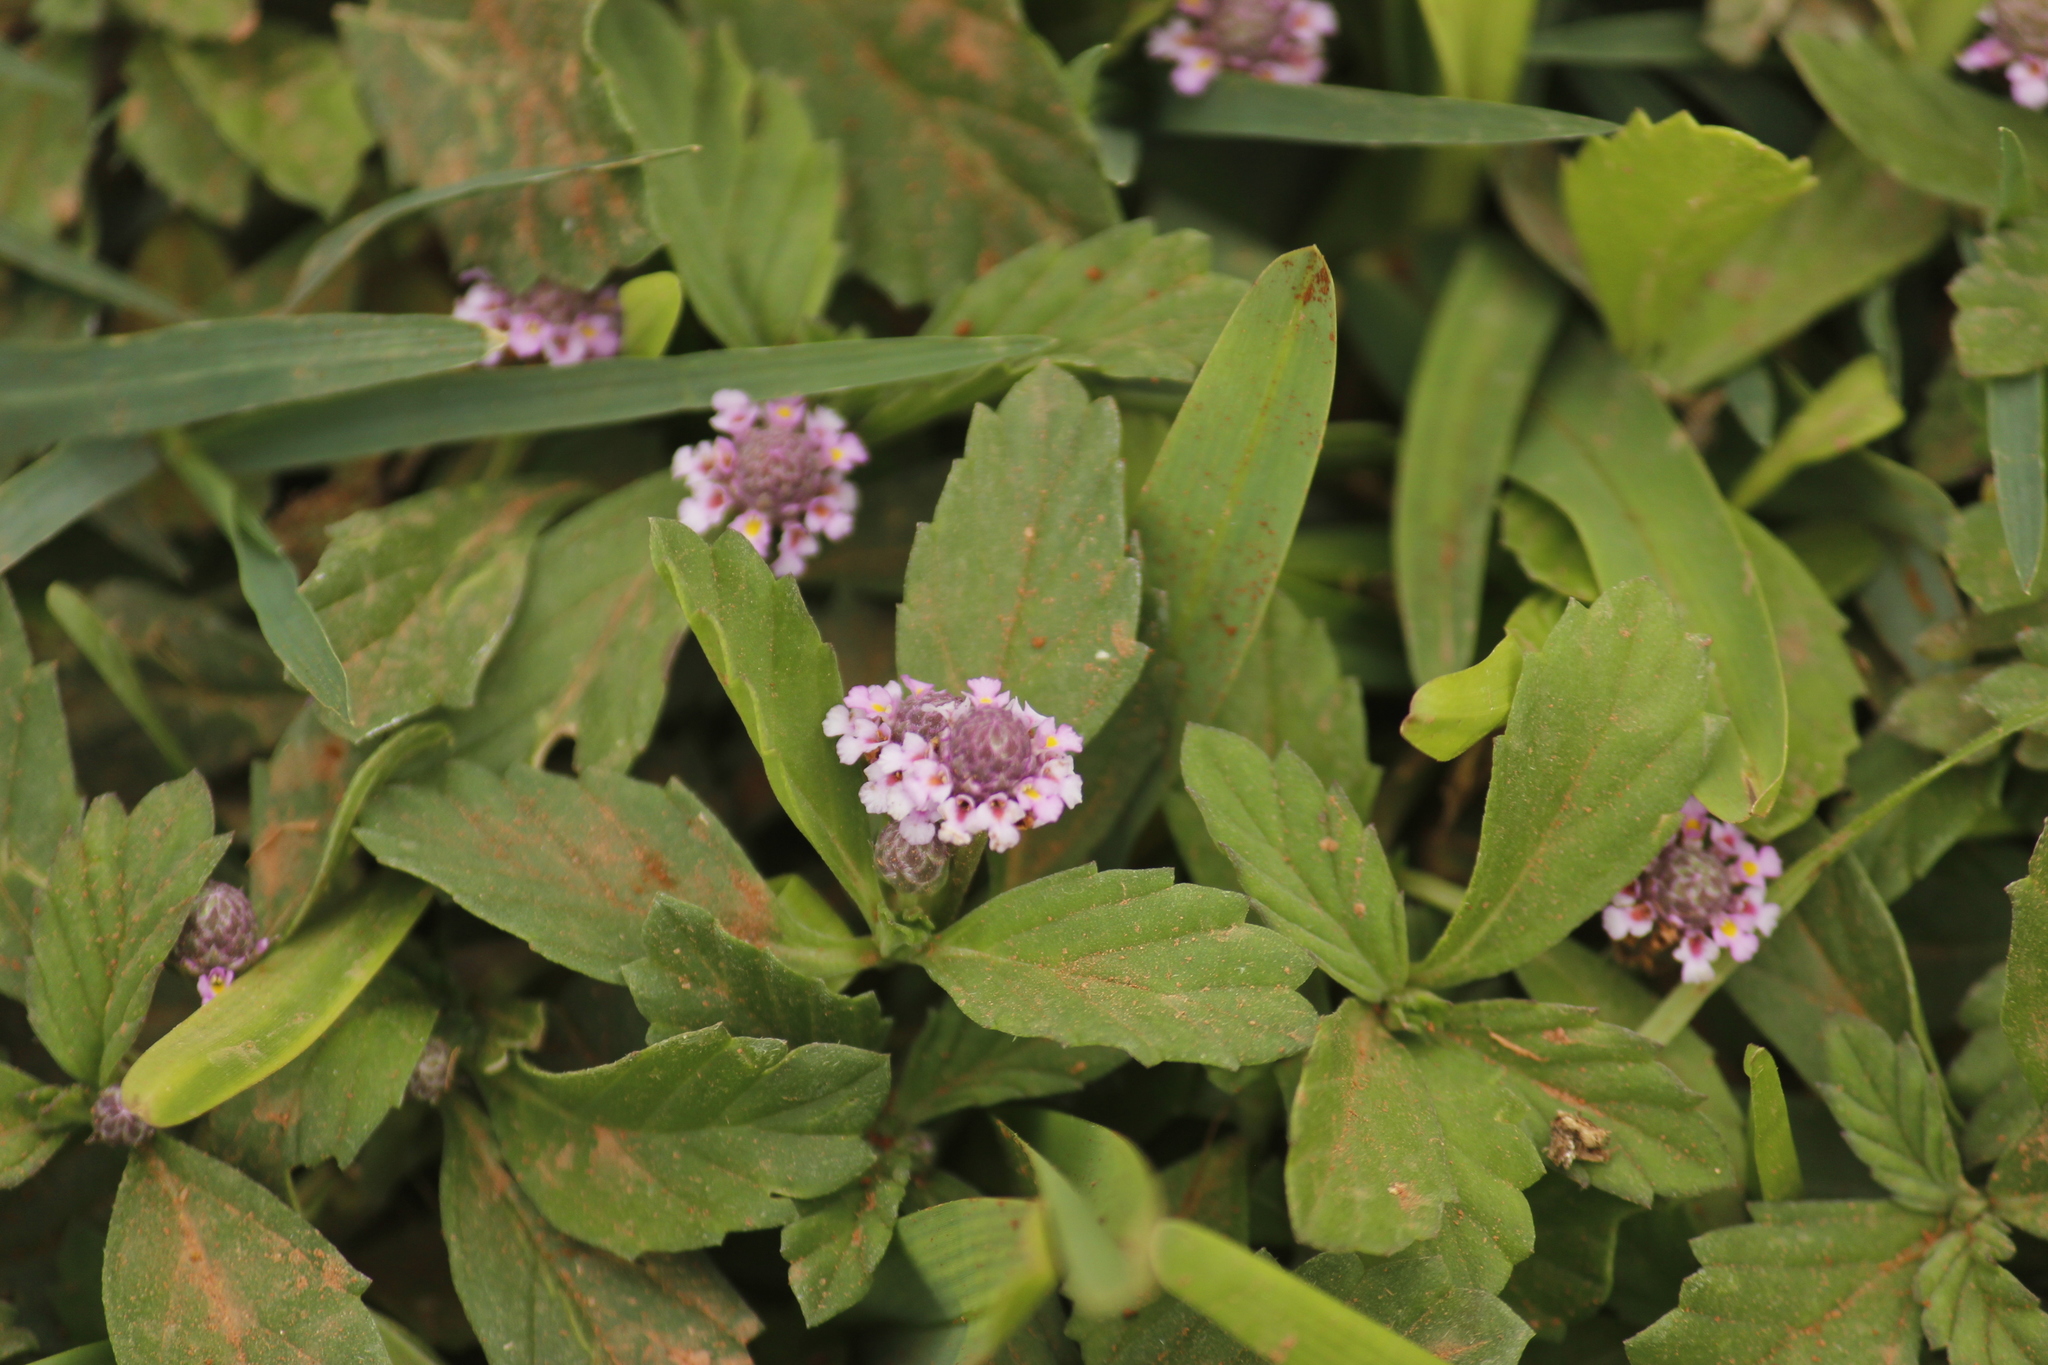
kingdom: Plantae
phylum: Tracheophyta
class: Magnoliopsida
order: Lamiales
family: Verbenaceae
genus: Phyla
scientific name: Phyla nodiflora
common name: Frogfruit
